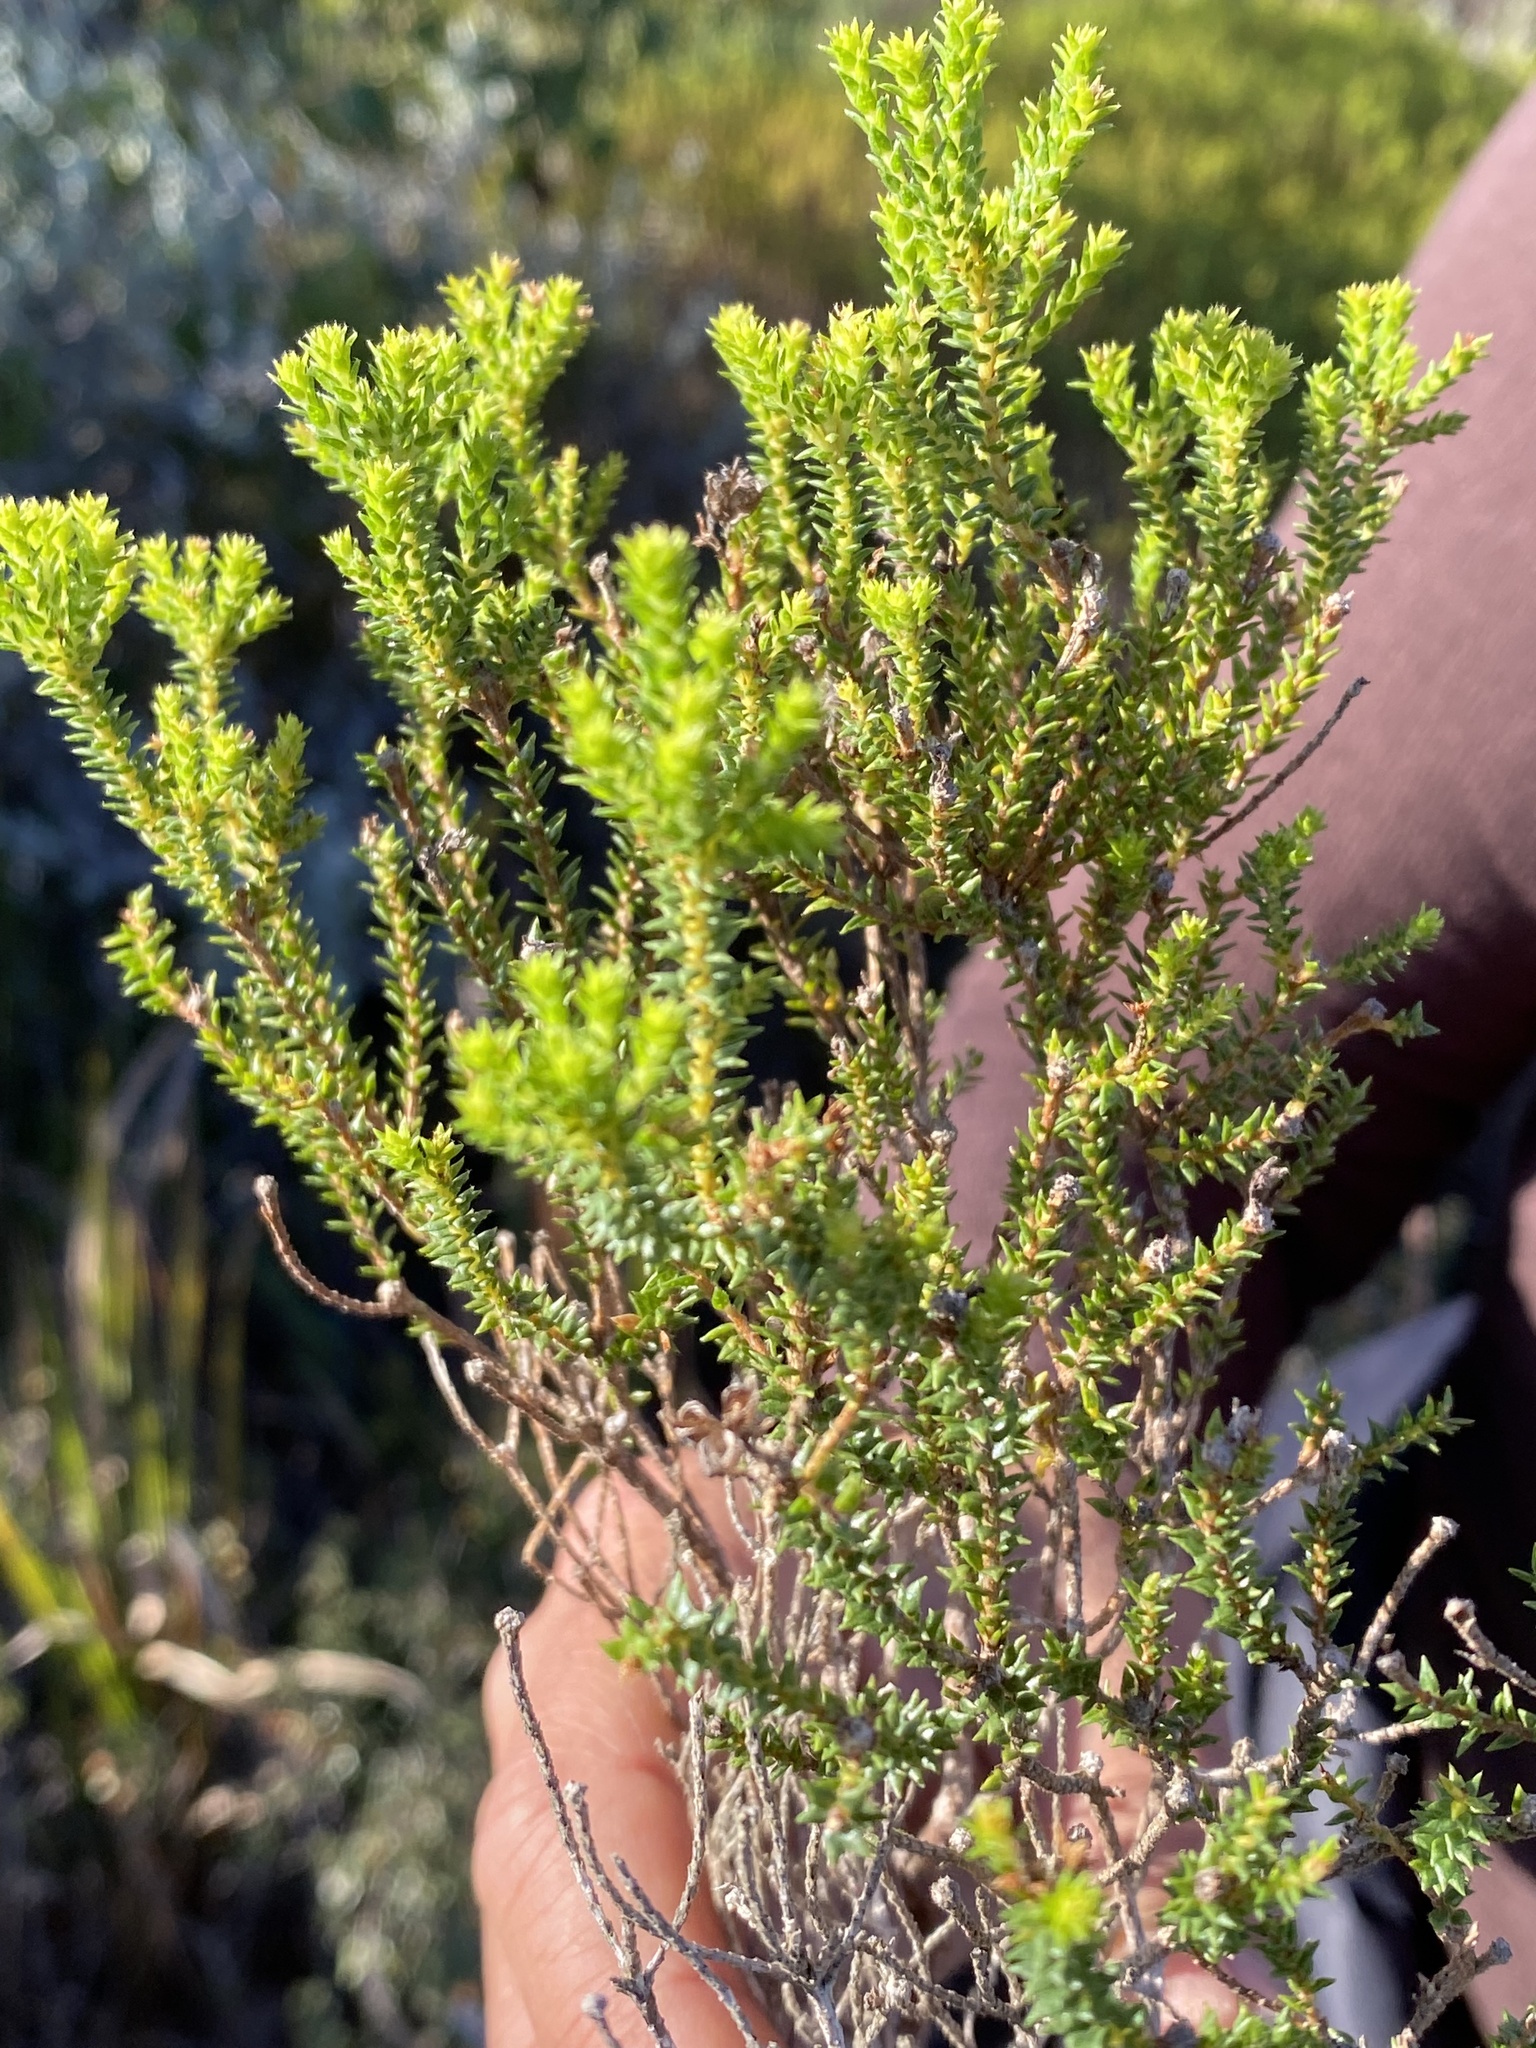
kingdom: Plantae
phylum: Tracheophyta
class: Magnoliopsida
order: Sapindales
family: Rutaceae
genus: Agathosma
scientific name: Agathosma apiculata
